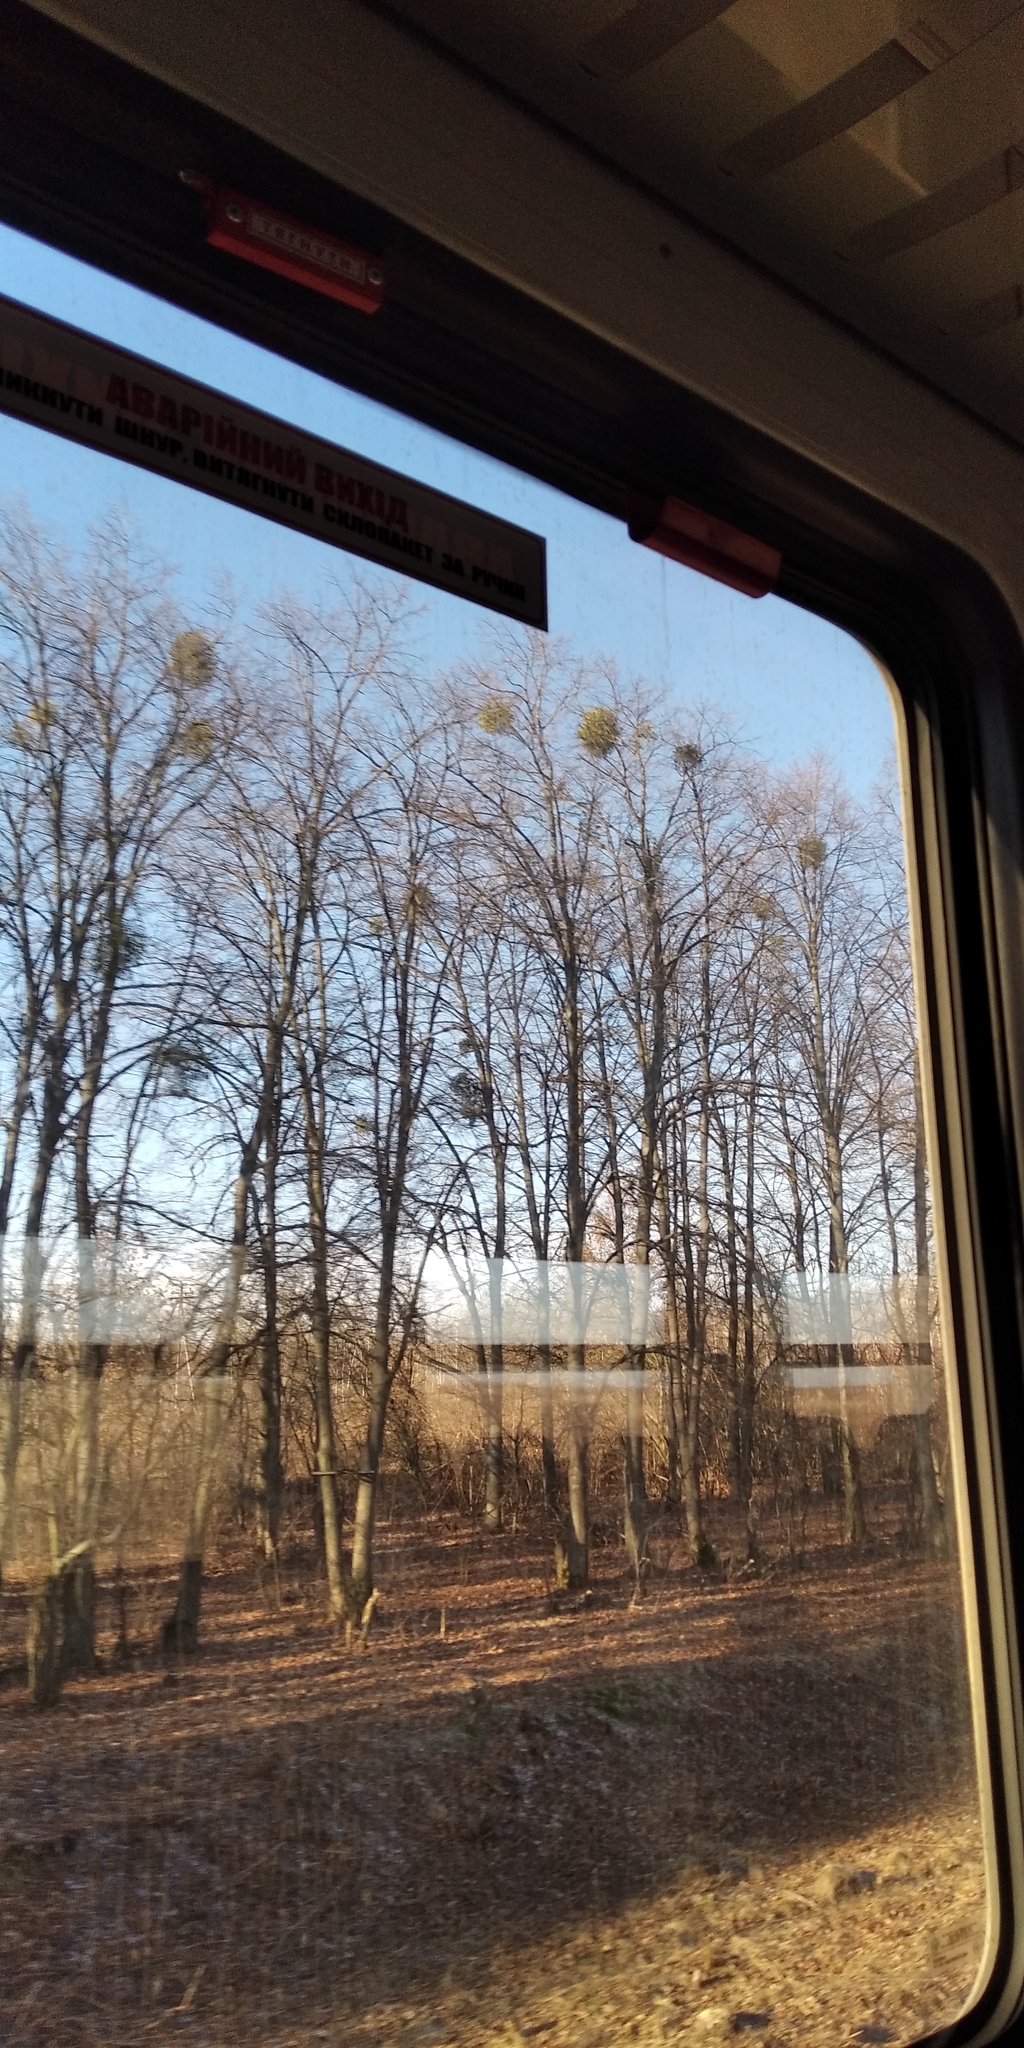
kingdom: Plantae
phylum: Tracheophyta
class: Magnoliopsida
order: Santalales
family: Viscaceae
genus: Viscum
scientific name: Viscum album
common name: Mistletoe
